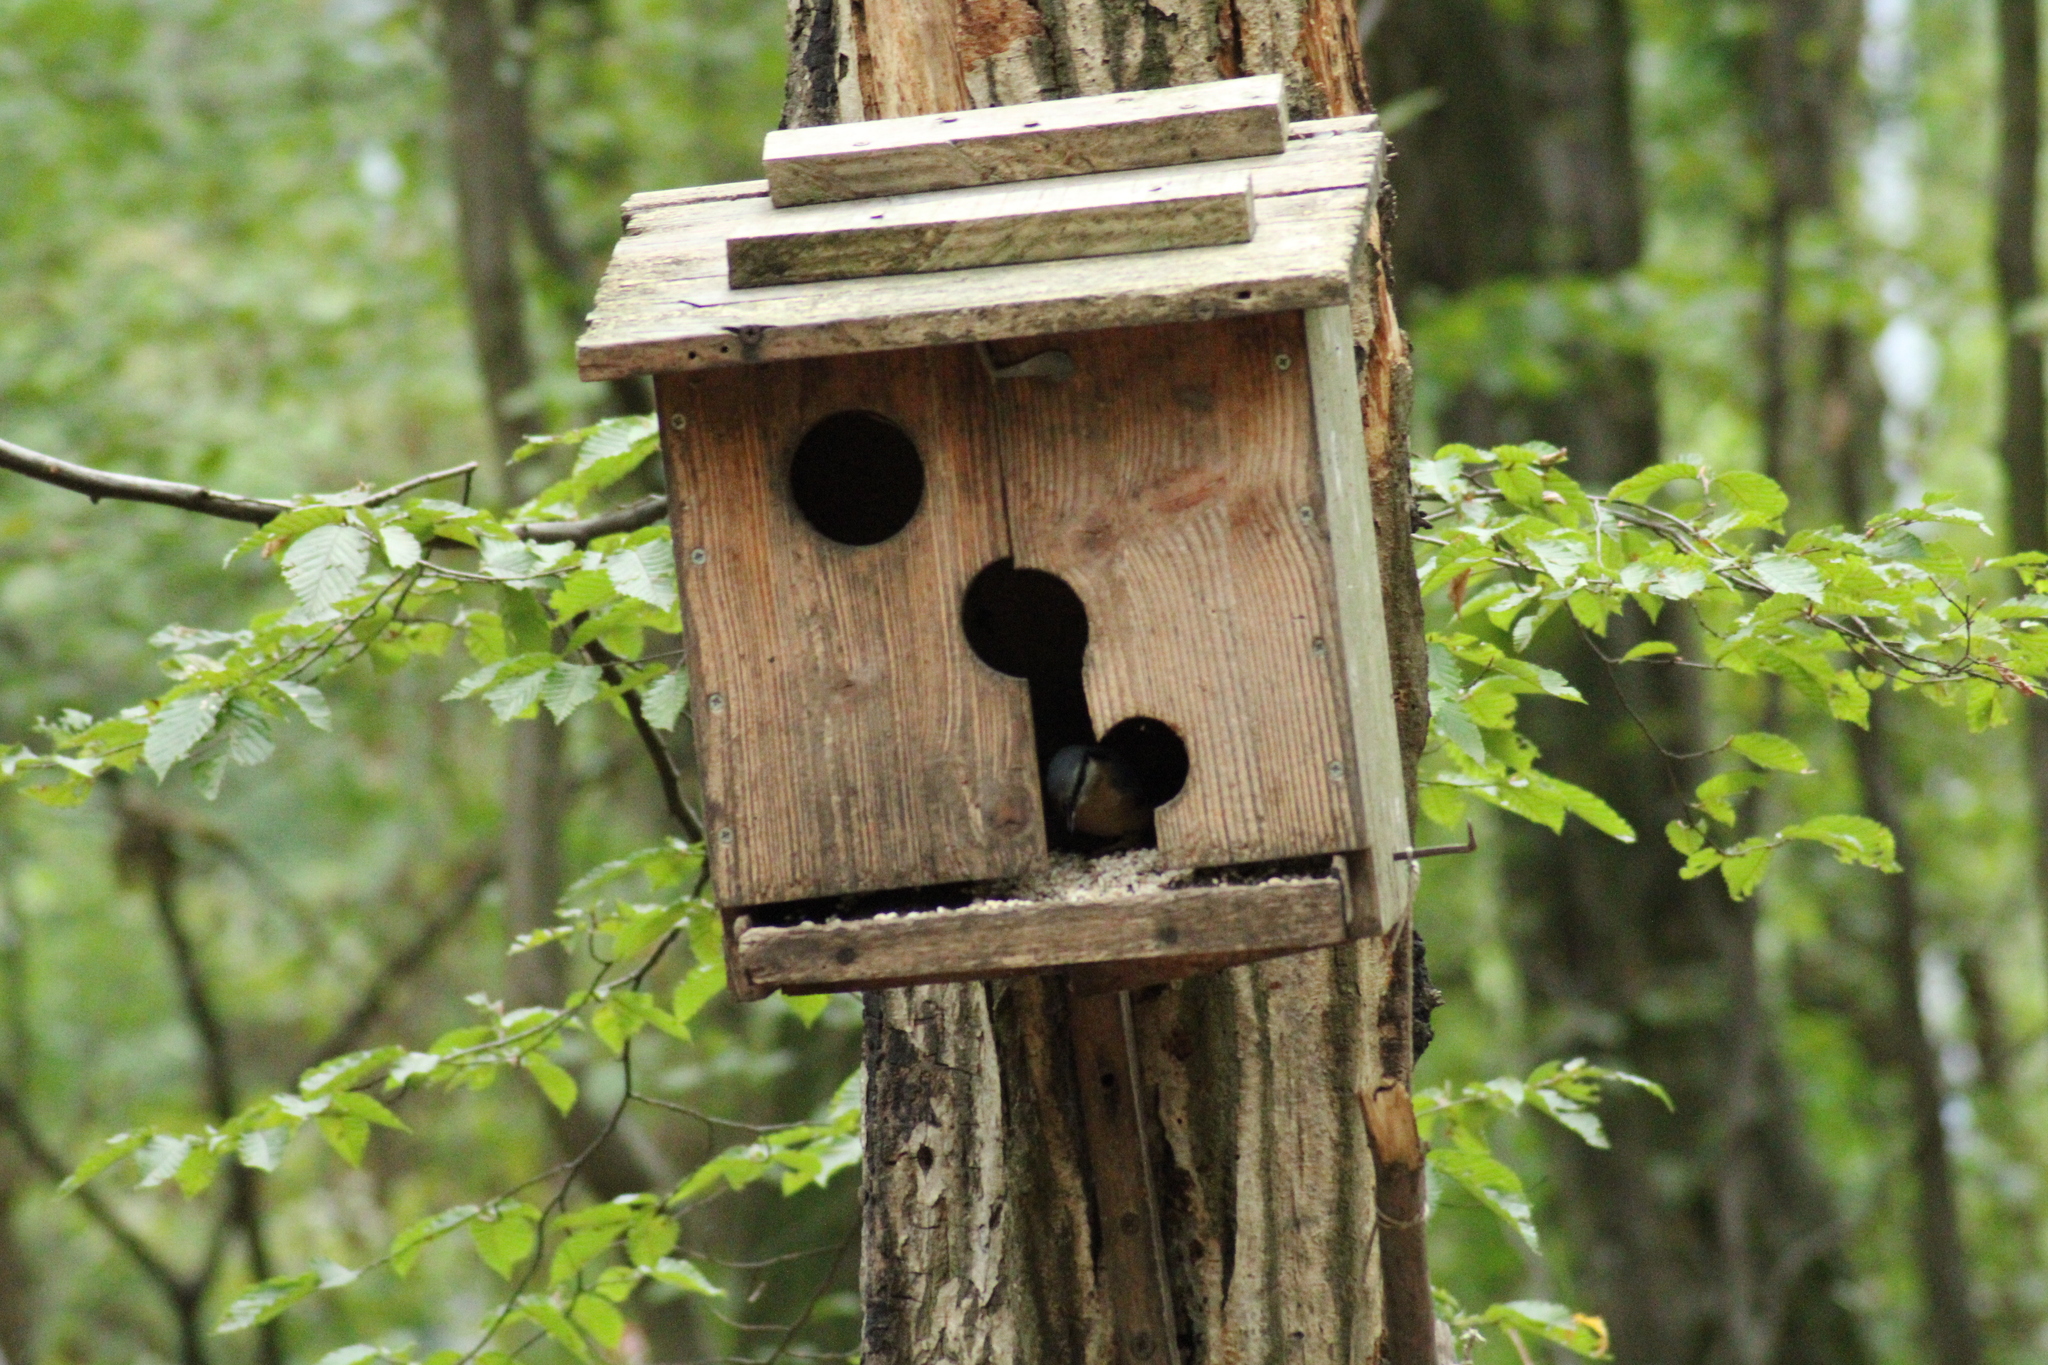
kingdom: Animalia
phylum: Chordata
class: Aves
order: Passeriformes
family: Sittidae
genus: Sitta
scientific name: Sitta europaea
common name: Eurasian nuthatch
